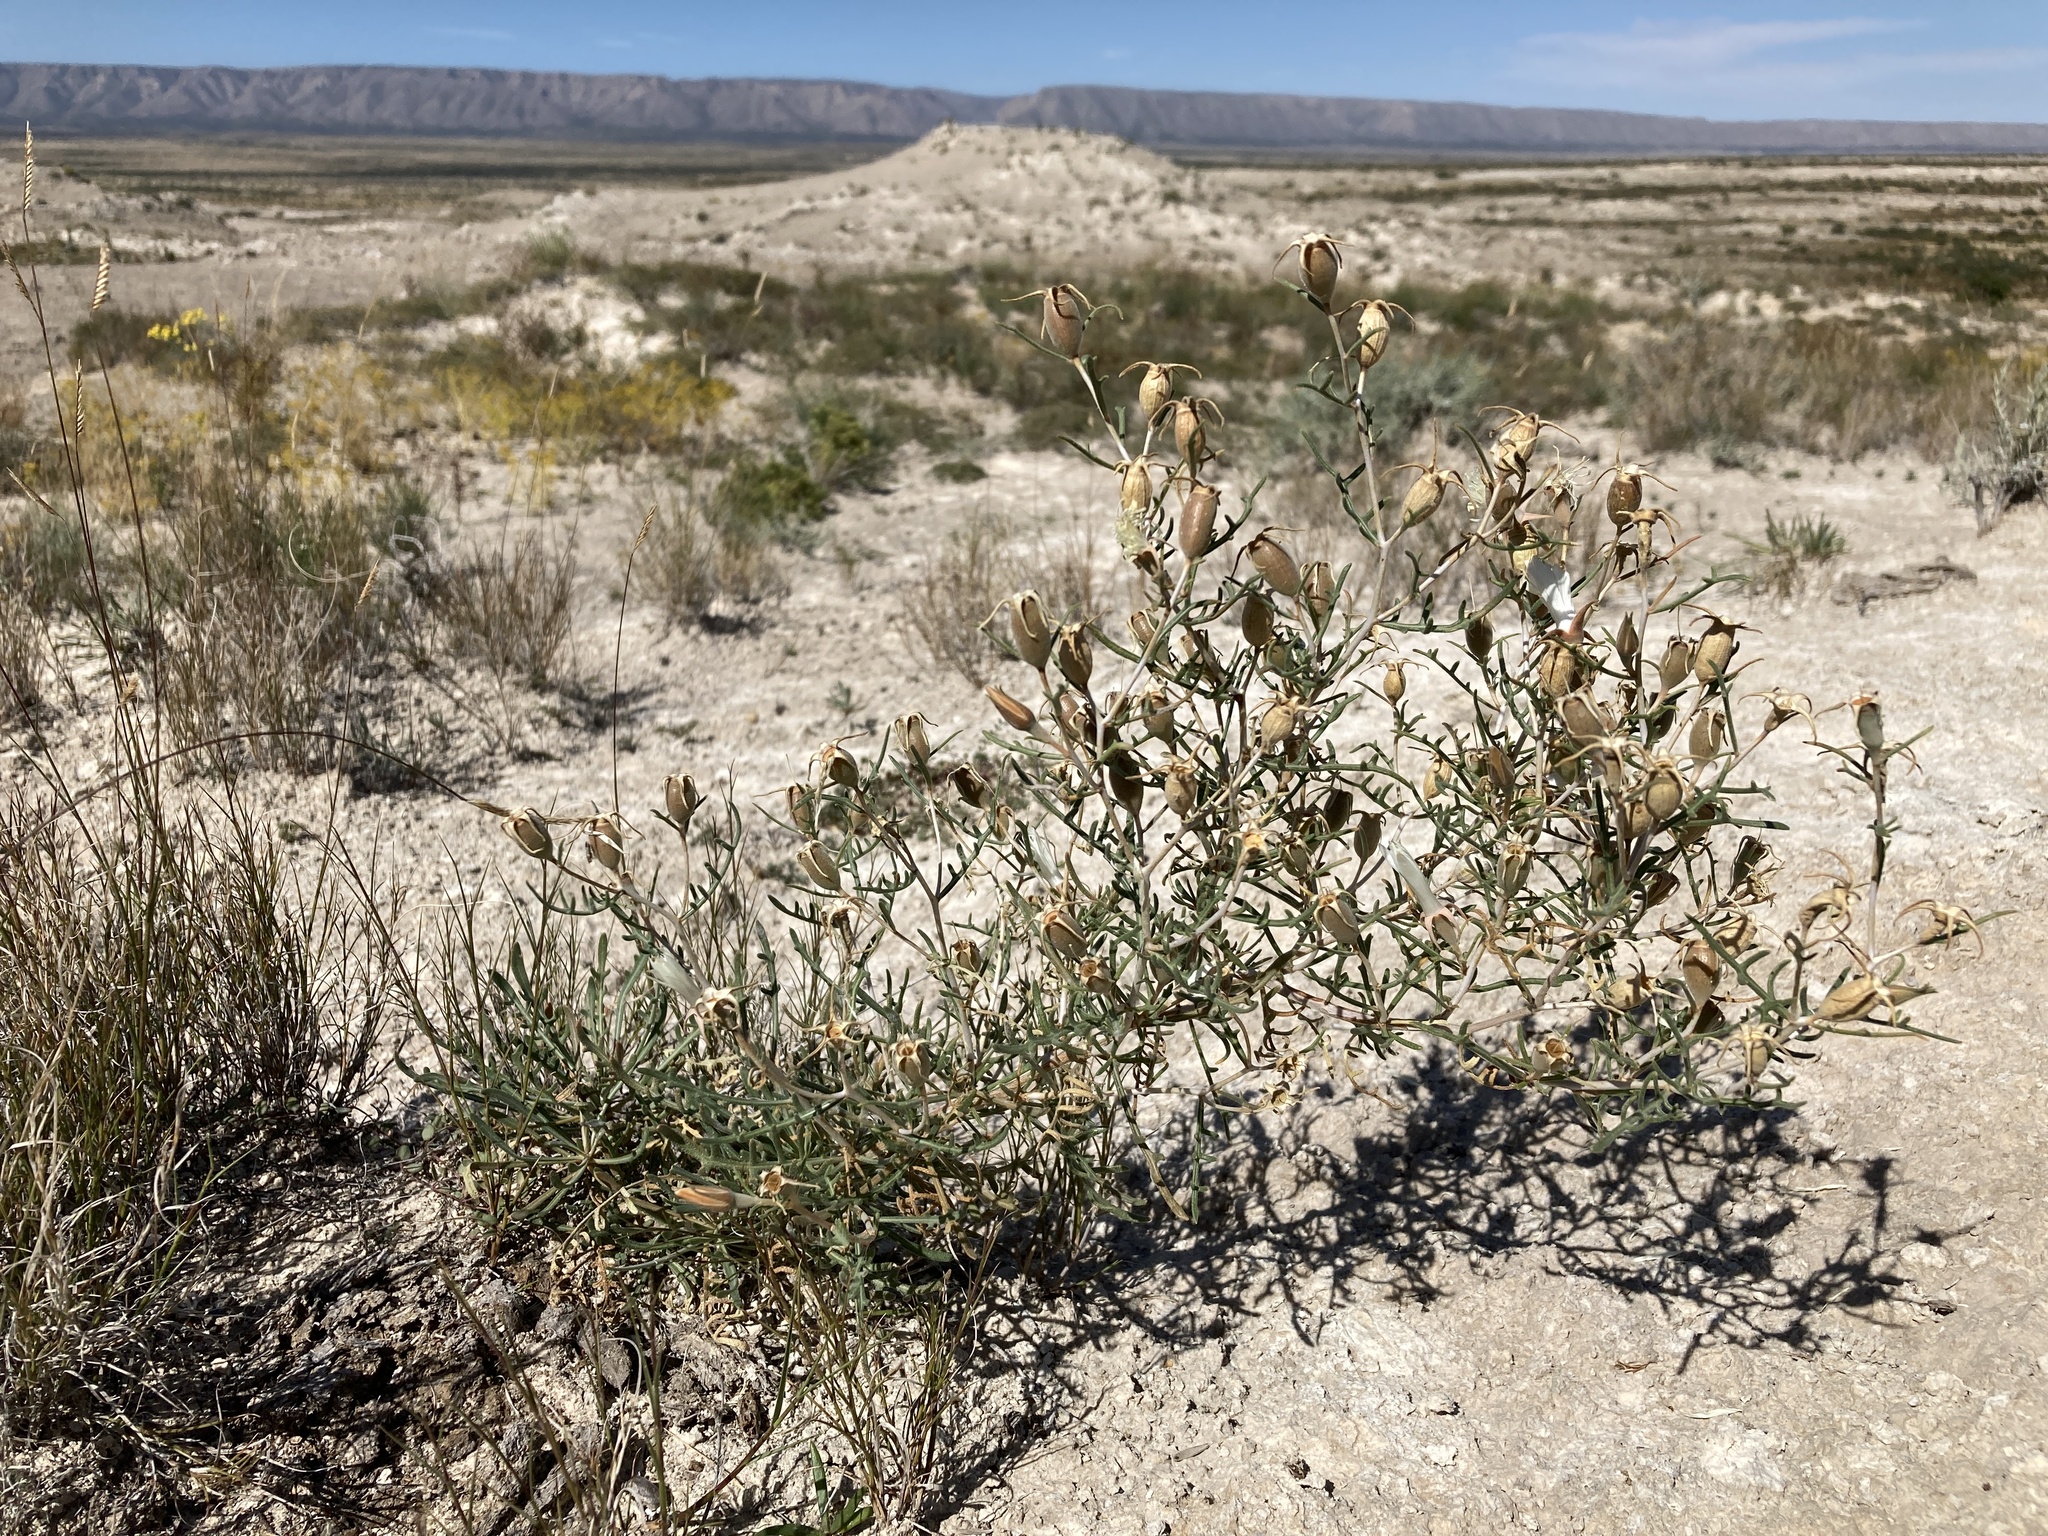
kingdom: Plantae
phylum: Tracheophyta
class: Magnoliopsida
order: Cornales
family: Loasaceae
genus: Mentzelia
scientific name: Mentzelia humilis
